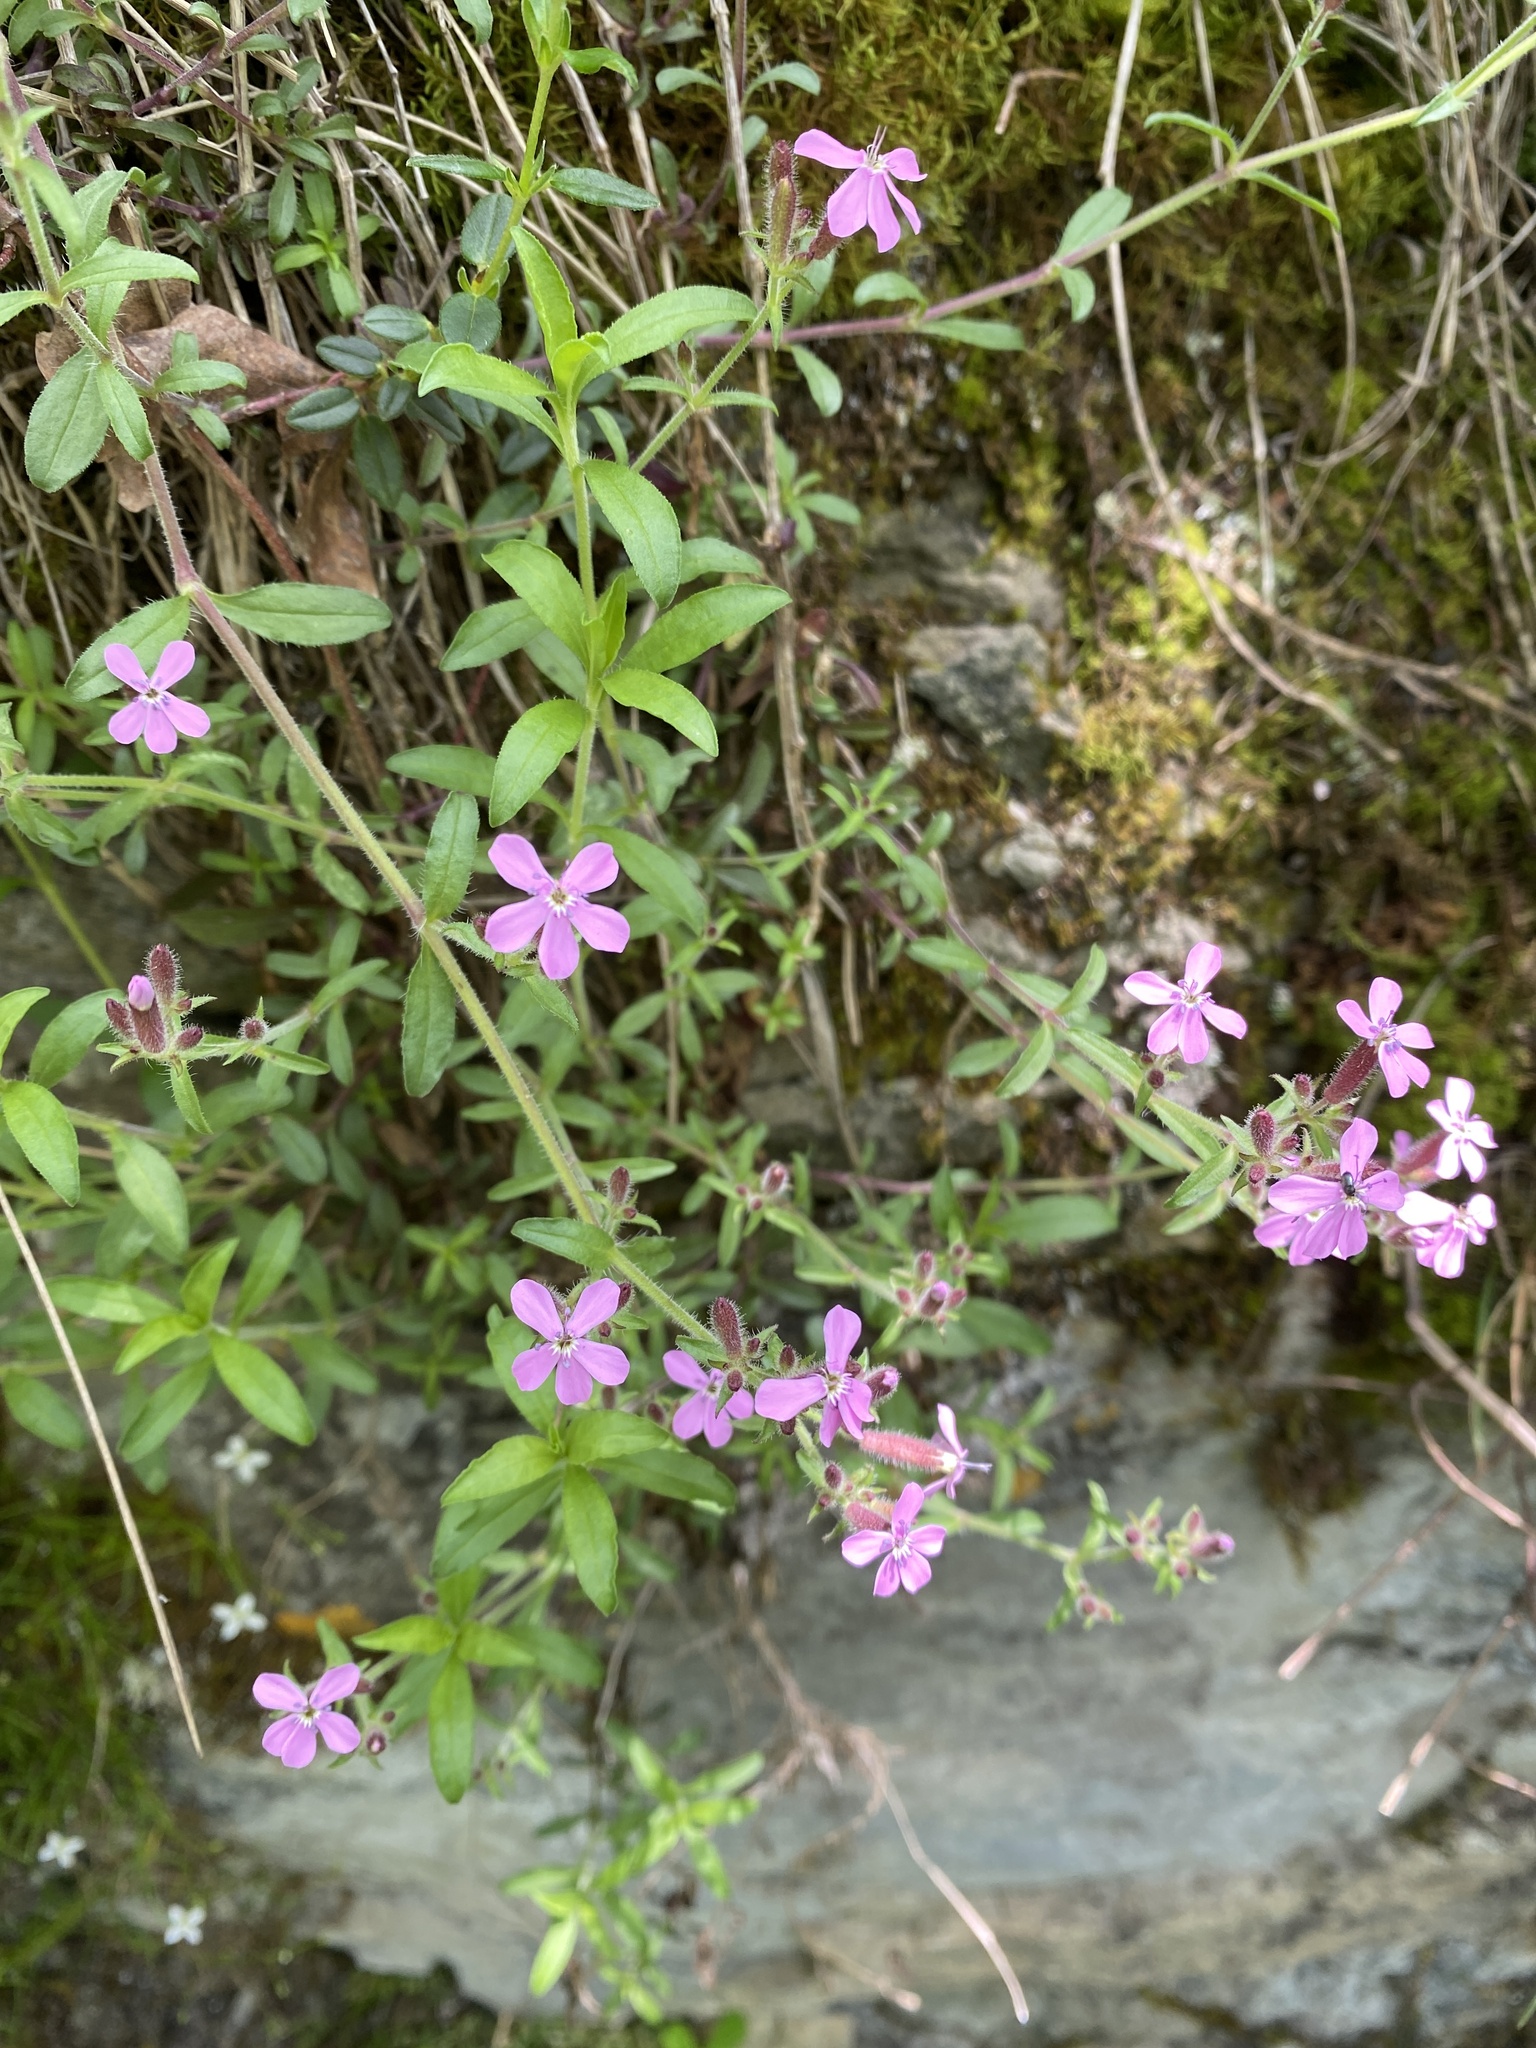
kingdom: Plantae
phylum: Tracheophyta
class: Magnoliopsida
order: Caryophyllales
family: Caryophyllaceae
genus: Saponaria
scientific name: Saponaria ocymoides
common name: Rock soapwort
